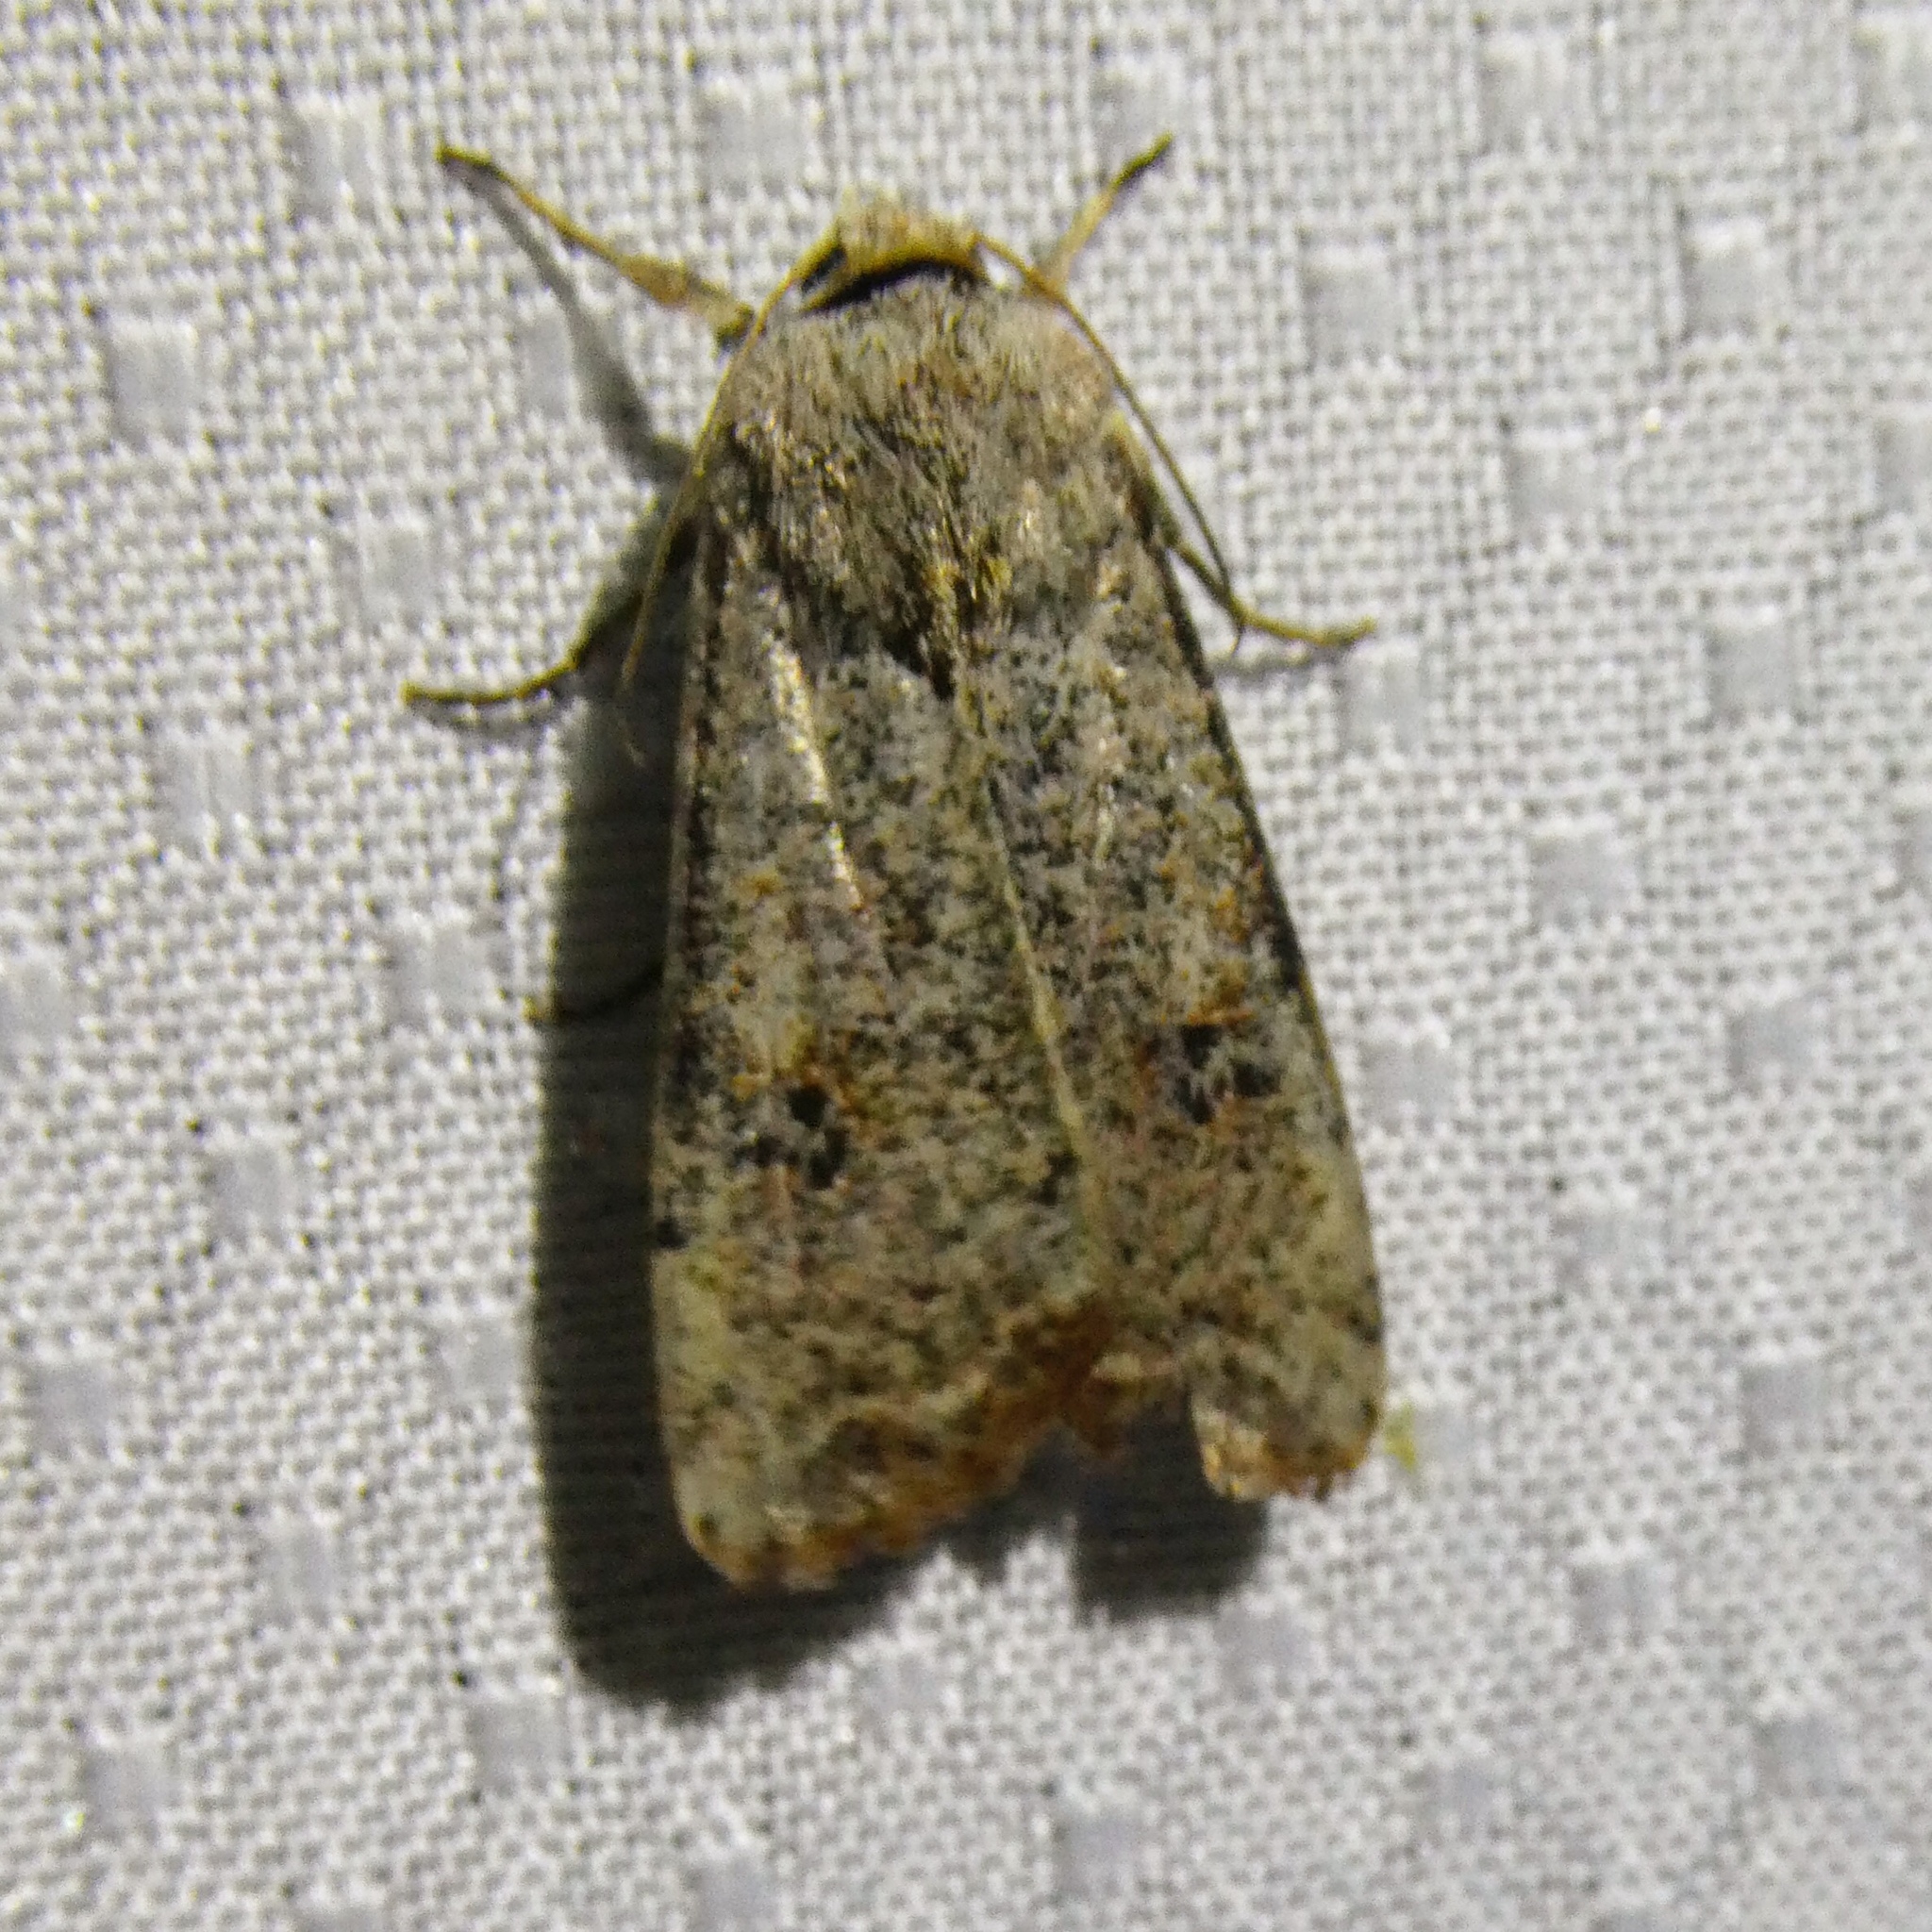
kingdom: Animalia
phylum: Arthropoda
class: Insecta
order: Lepidoptera
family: Noctuidae
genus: Anicla
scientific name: Anicla infecta
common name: Green cutworm
